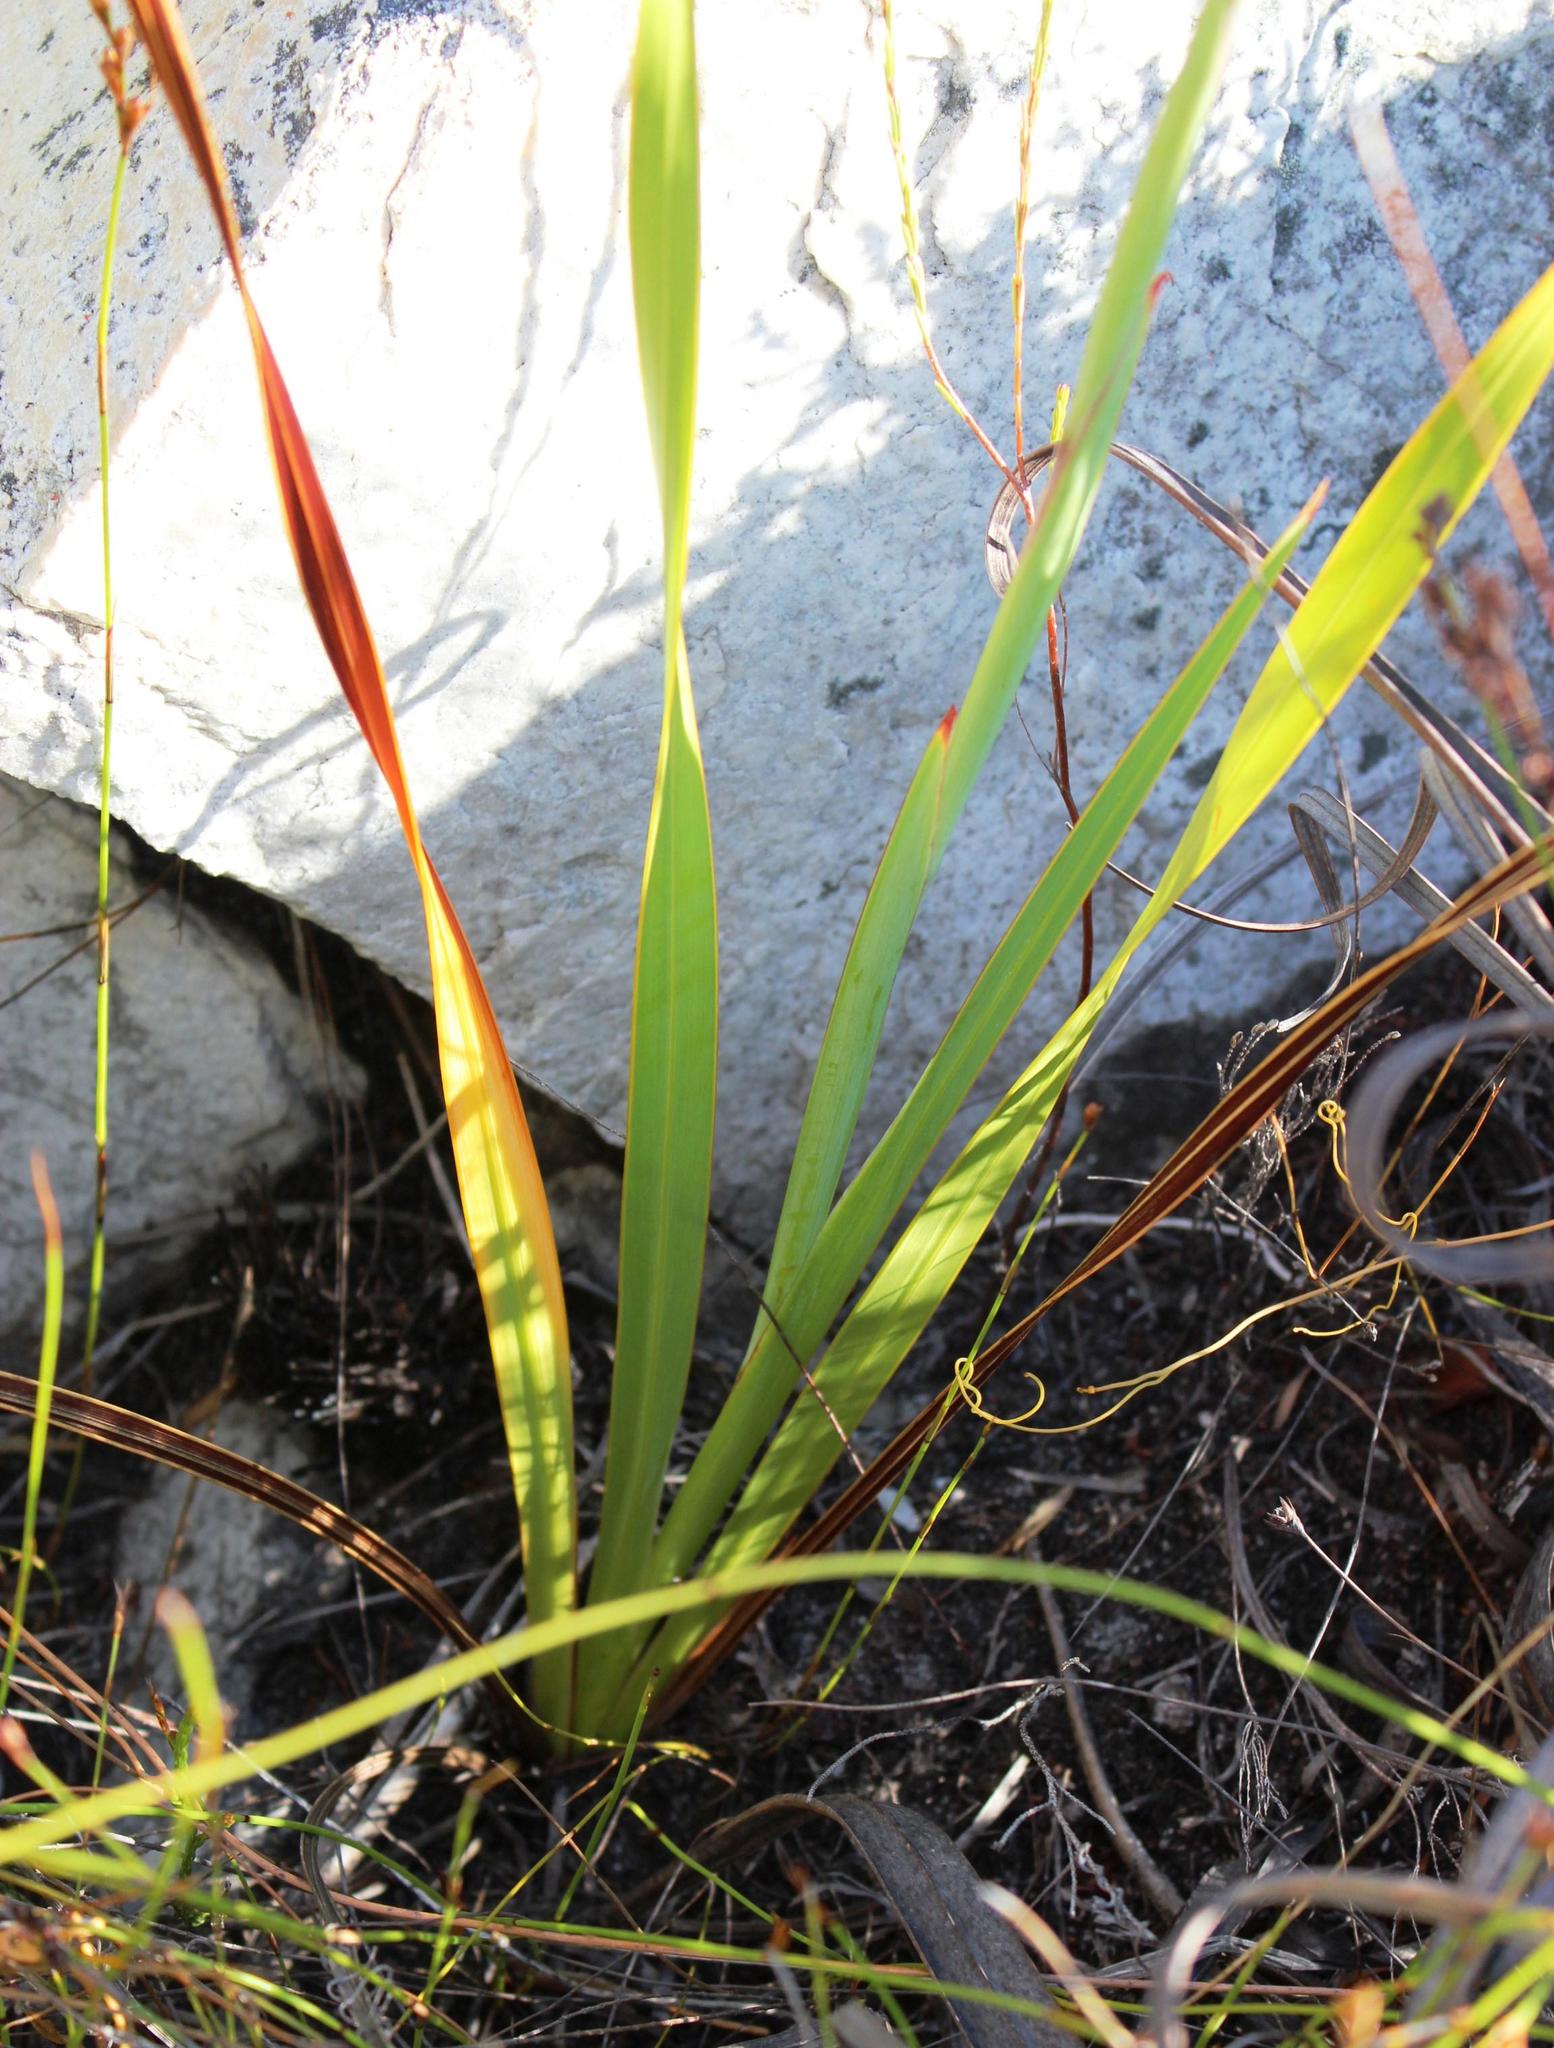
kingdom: Plantae
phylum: Tracheophyta
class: Liliopsida
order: Asparagales
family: Iridaceae
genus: Watsonia
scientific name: Watsonia schlechteri
